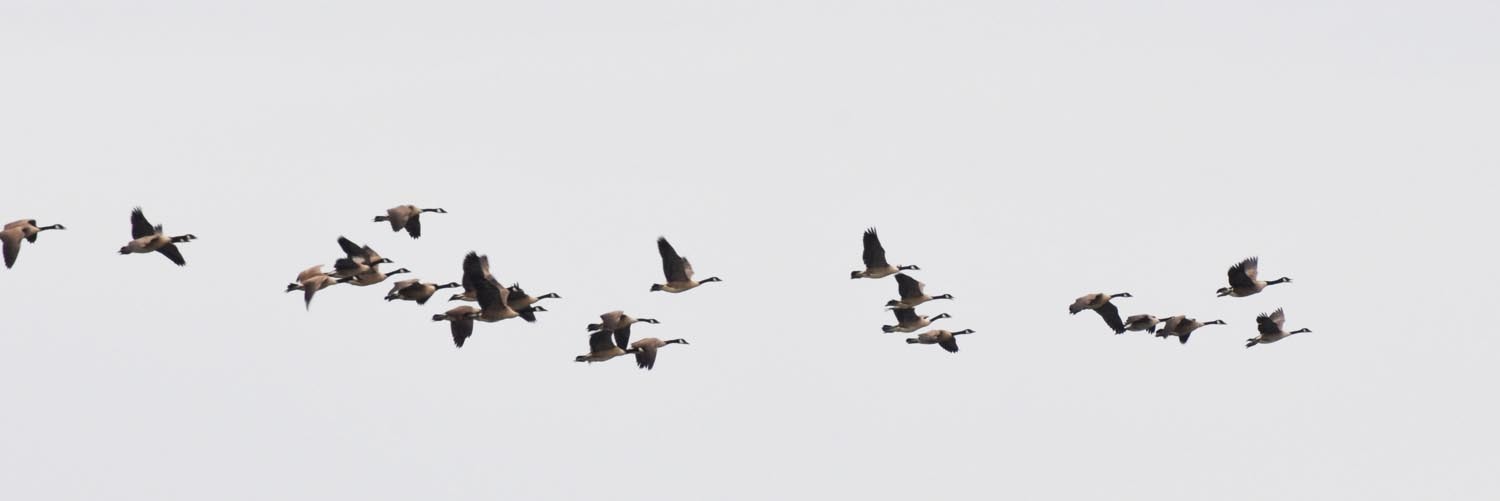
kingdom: Animalia
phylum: Chordata
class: Aves
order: Anseriformes
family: Anatidae
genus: Branta
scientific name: Branta canadensis
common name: Canada goose
